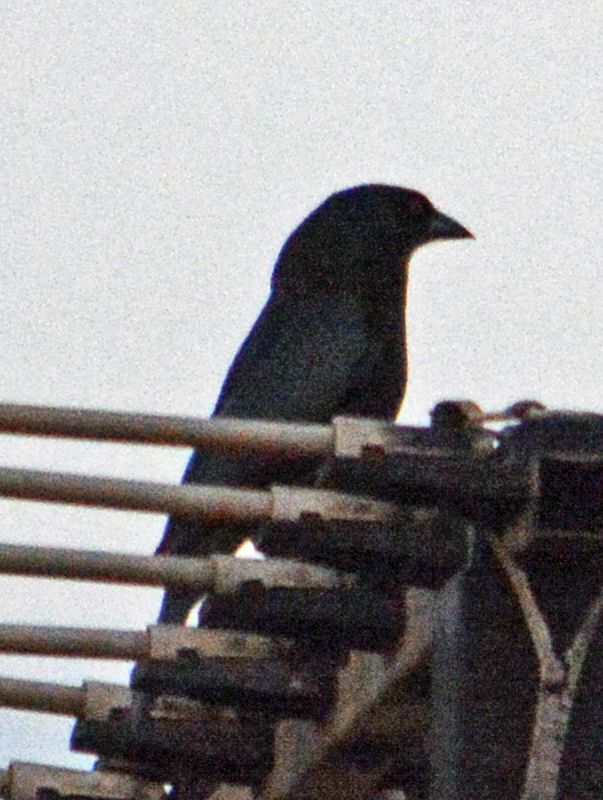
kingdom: Animalia
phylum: Chordata
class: Aves
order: Passeriformes
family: Icteridae
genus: Molothrus
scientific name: Molothrus aeneus
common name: Bronzed cowbird
